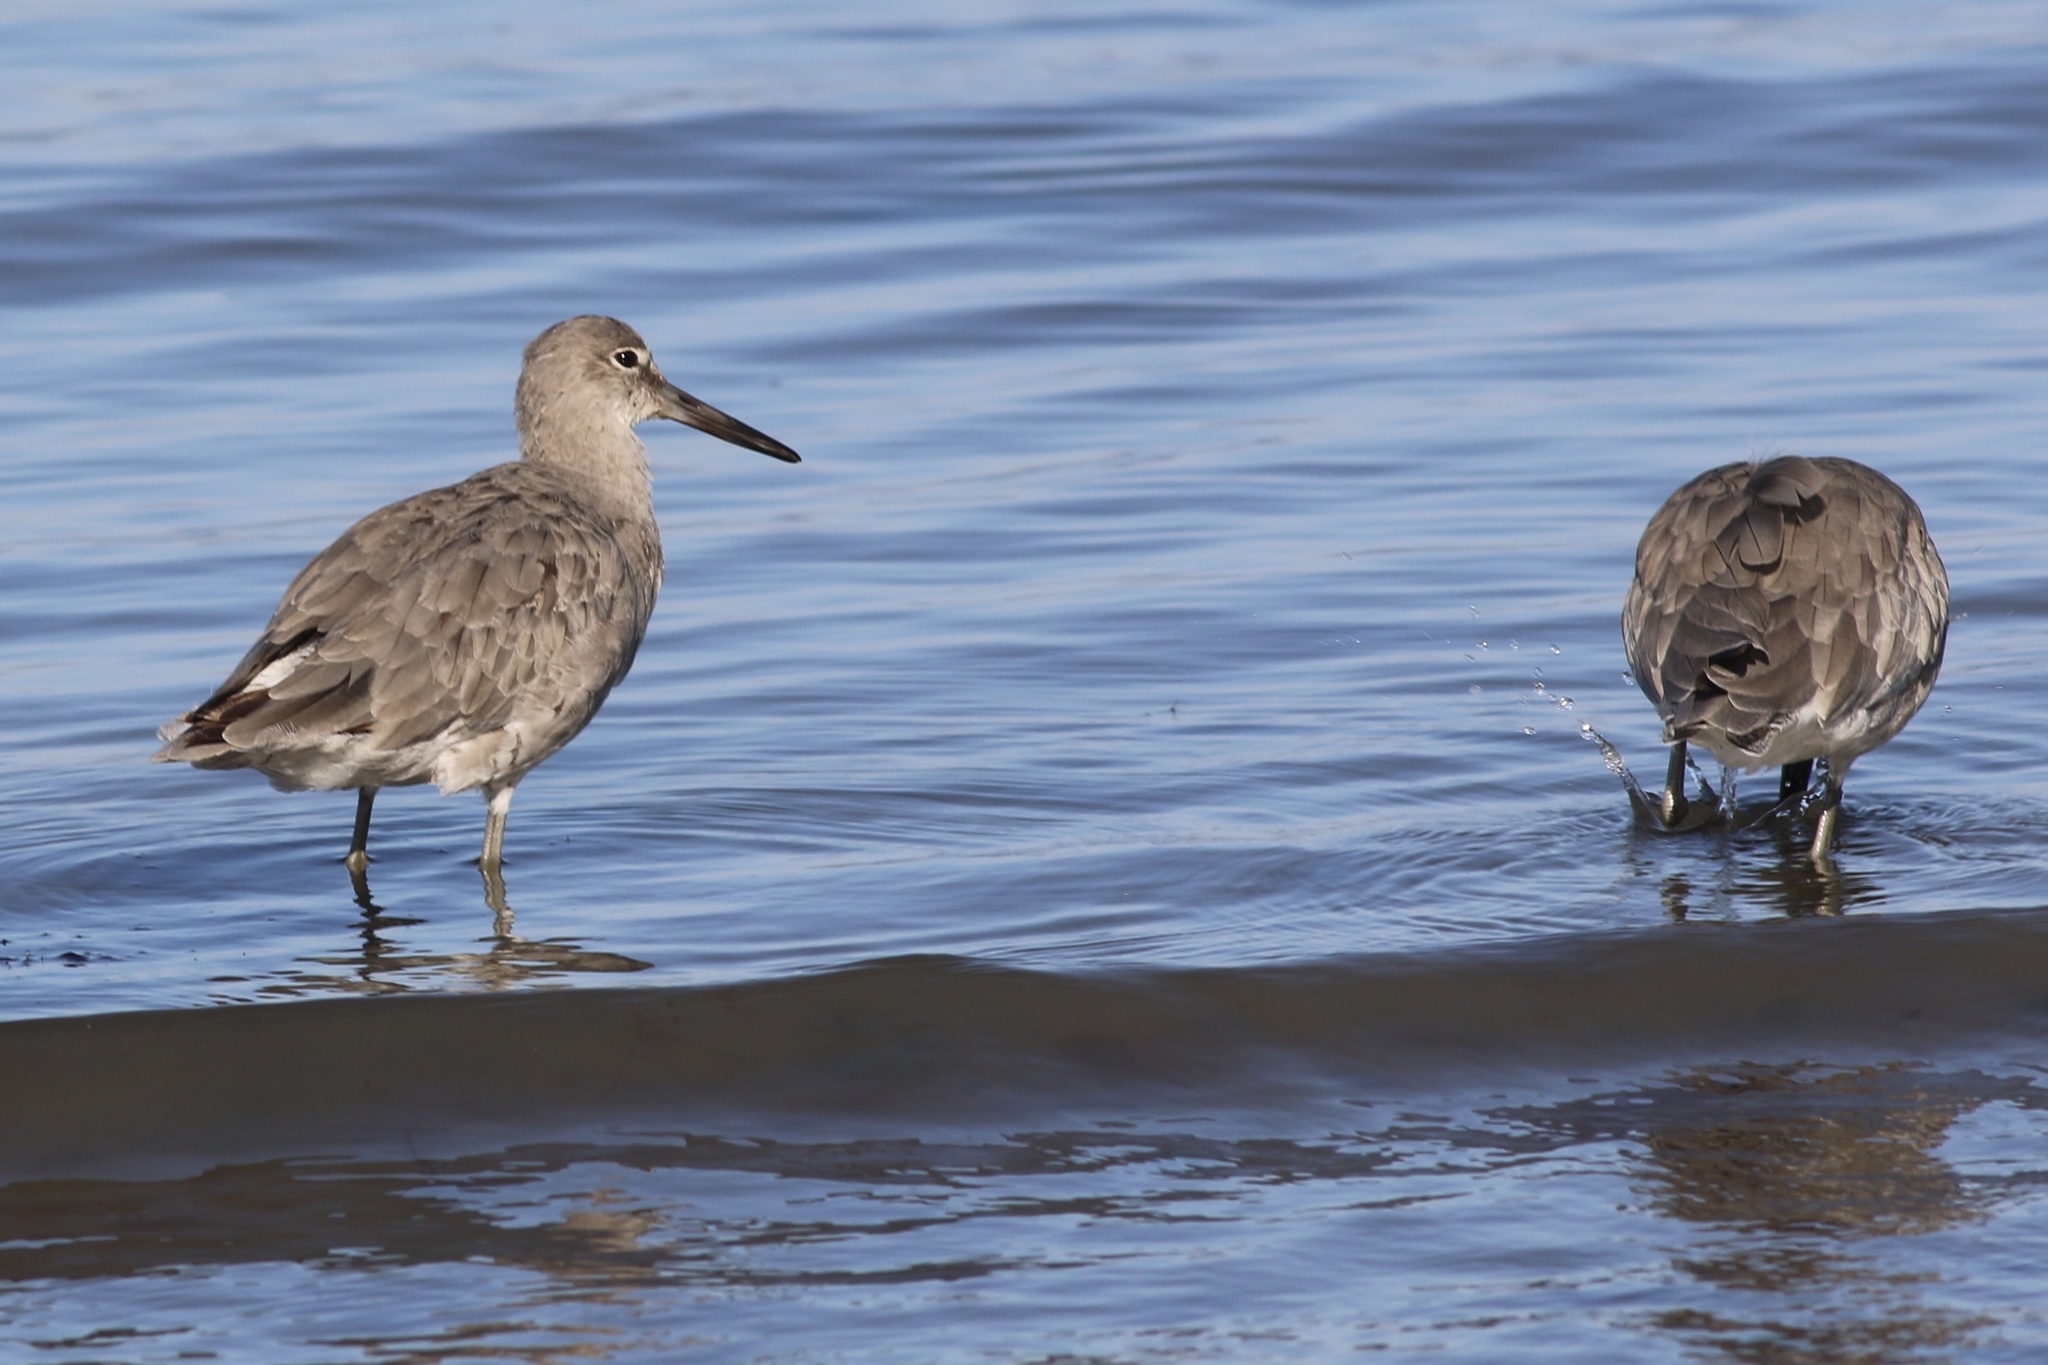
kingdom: Animalia
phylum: Chordata
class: Aves
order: Charadriiformes
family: Scolopacidae
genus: Tringa
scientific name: Tringa semipalmata
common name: Willet
